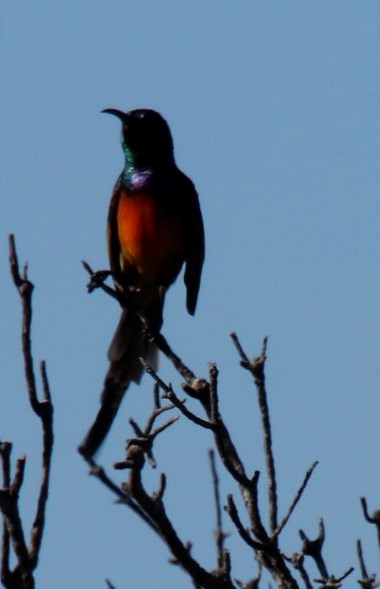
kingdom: Animalia
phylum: Chordata
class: Aves
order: Passeriformes
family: Nectariniidae
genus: Anthobaphes
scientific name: Anthobaphes violacea
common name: Orange-breasted sunbird
